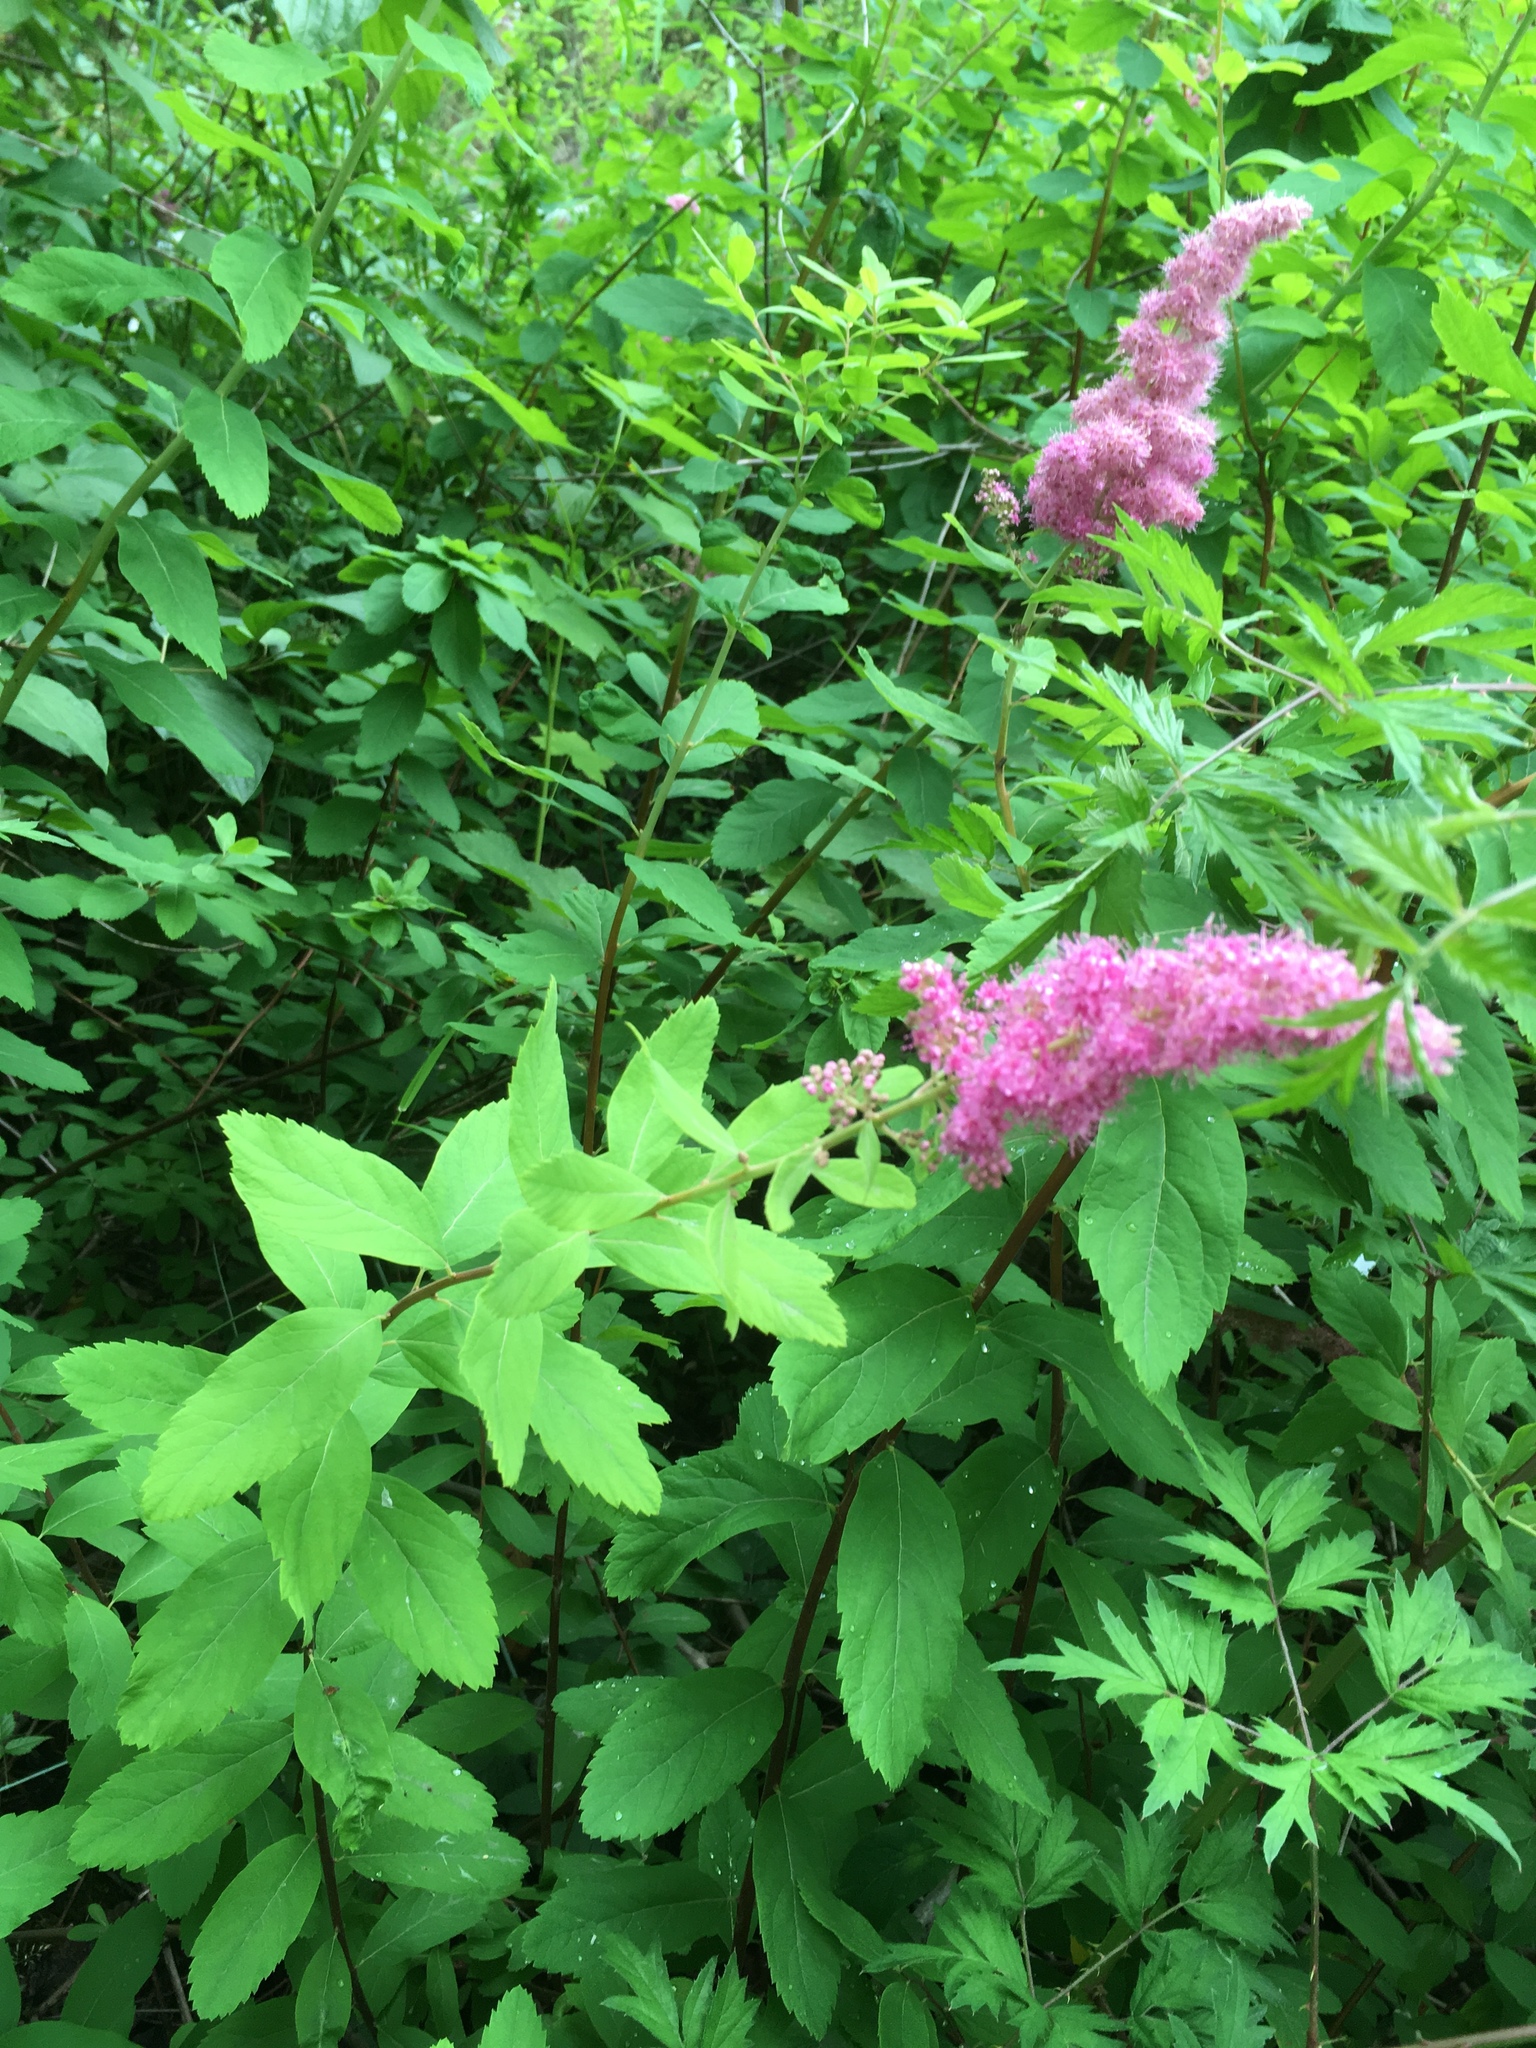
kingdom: Plantae
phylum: Tracheophyta
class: Magnoliopsida
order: Rosales
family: Rosaceae
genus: Spiraea
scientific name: Spiraea douglasii
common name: Steeplebush
